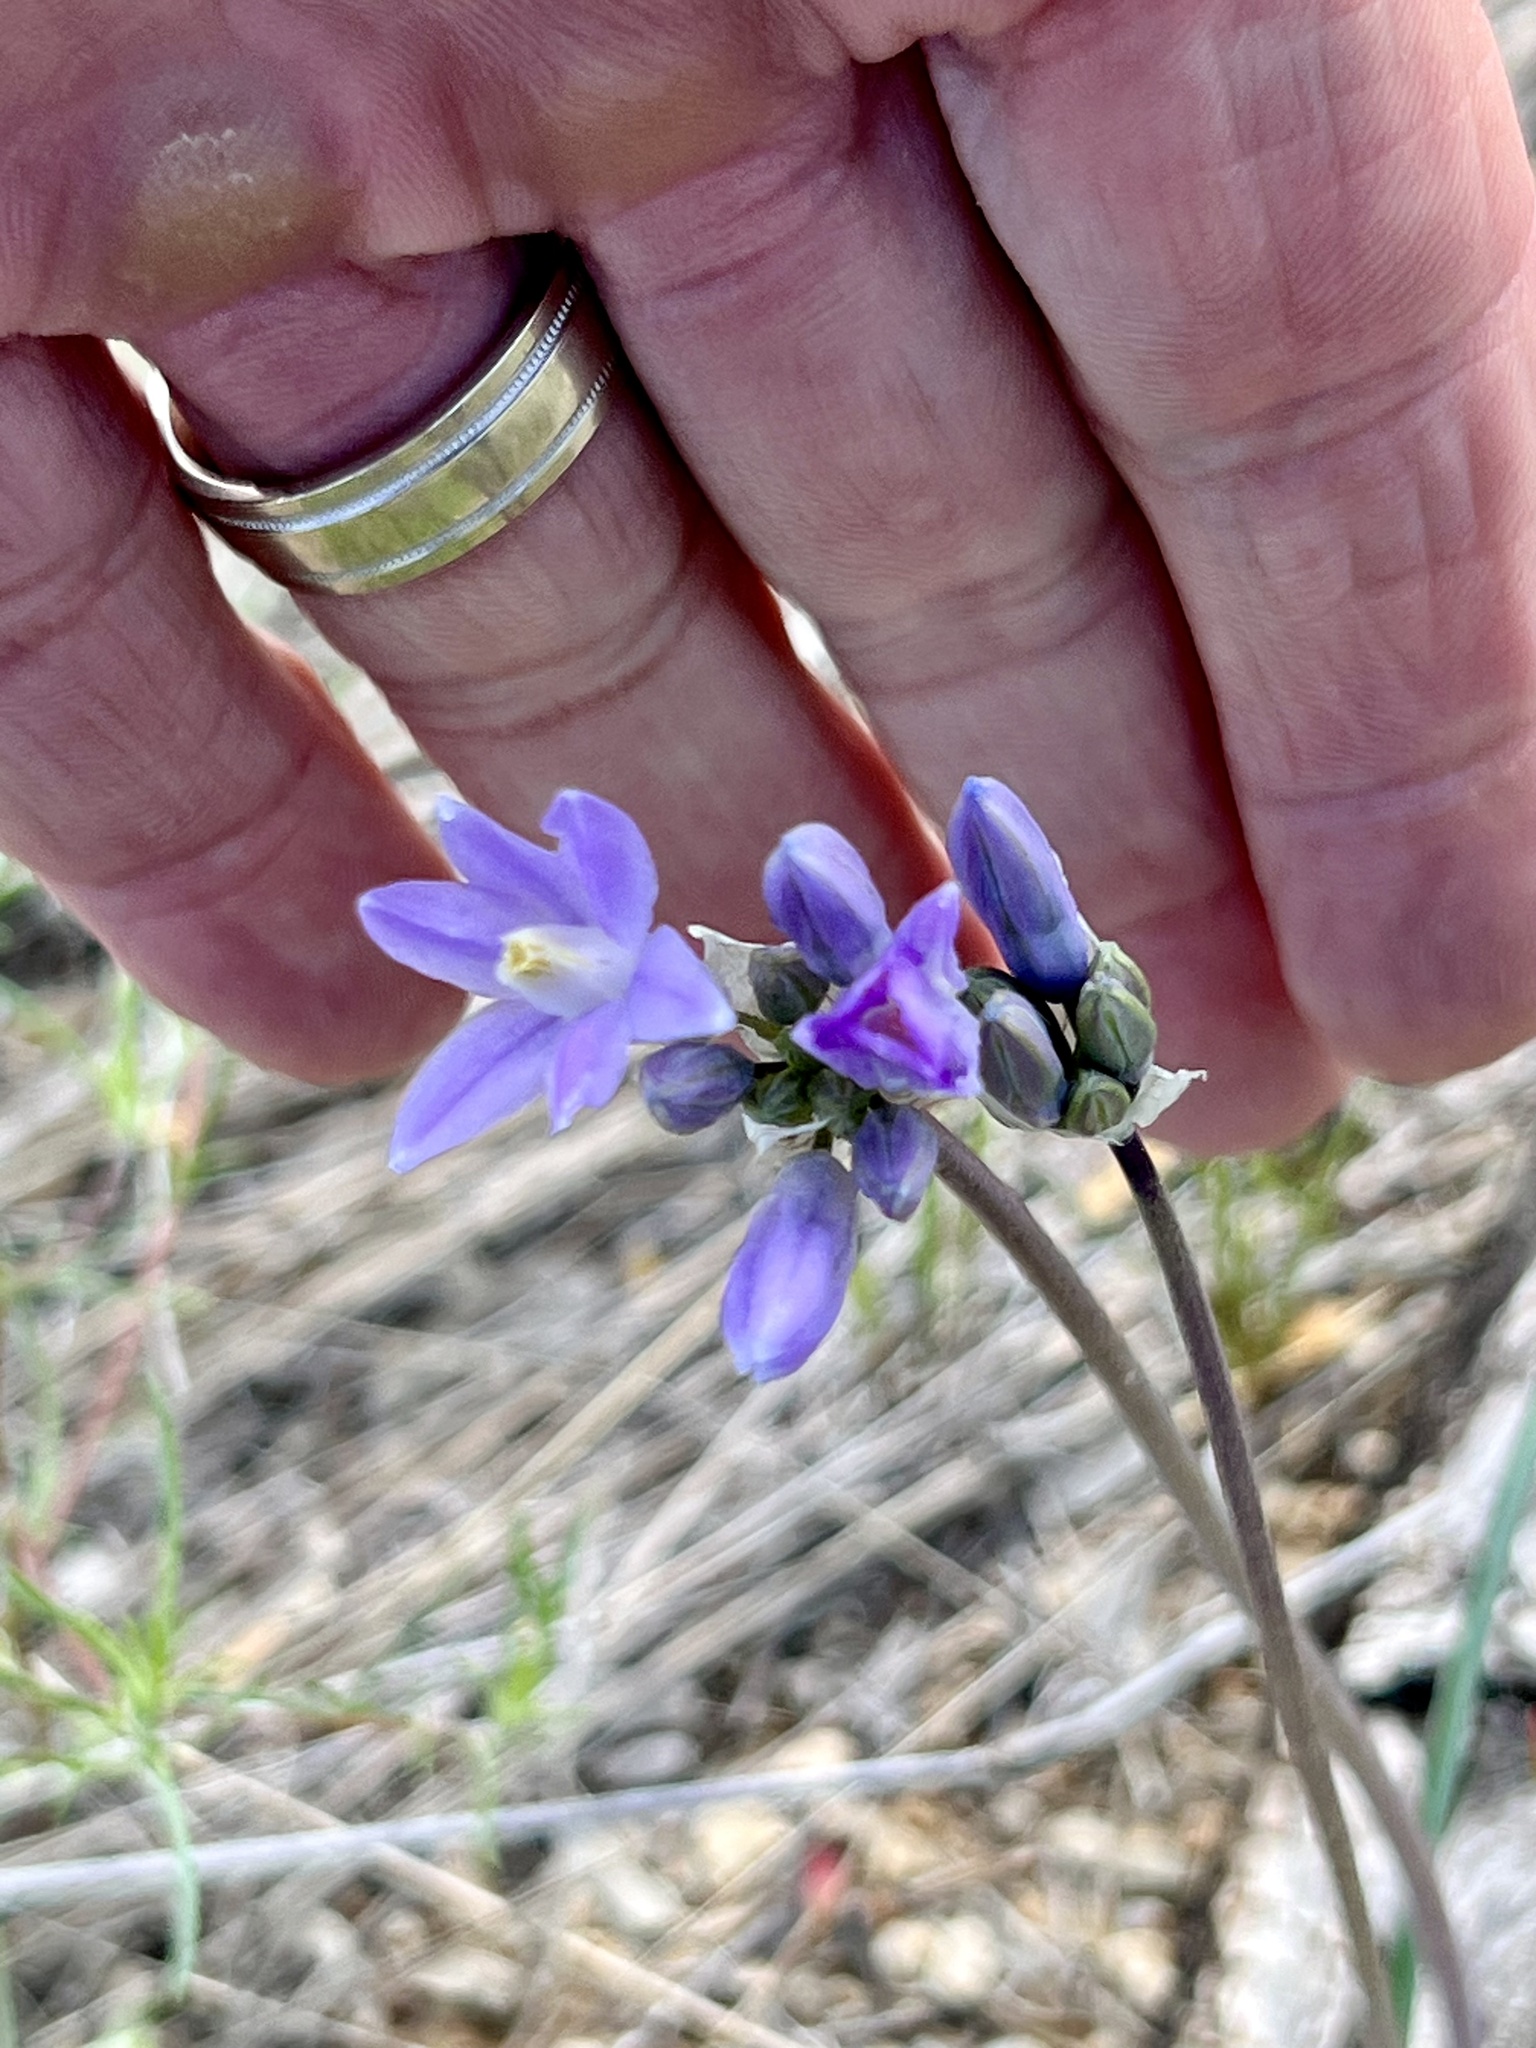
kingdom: Plantae
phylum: Tracheophyta
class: Liliopsida
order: Asparagales
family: Asparagaceae
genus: Dipterostemon
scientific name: Dipterostemon capitatus
